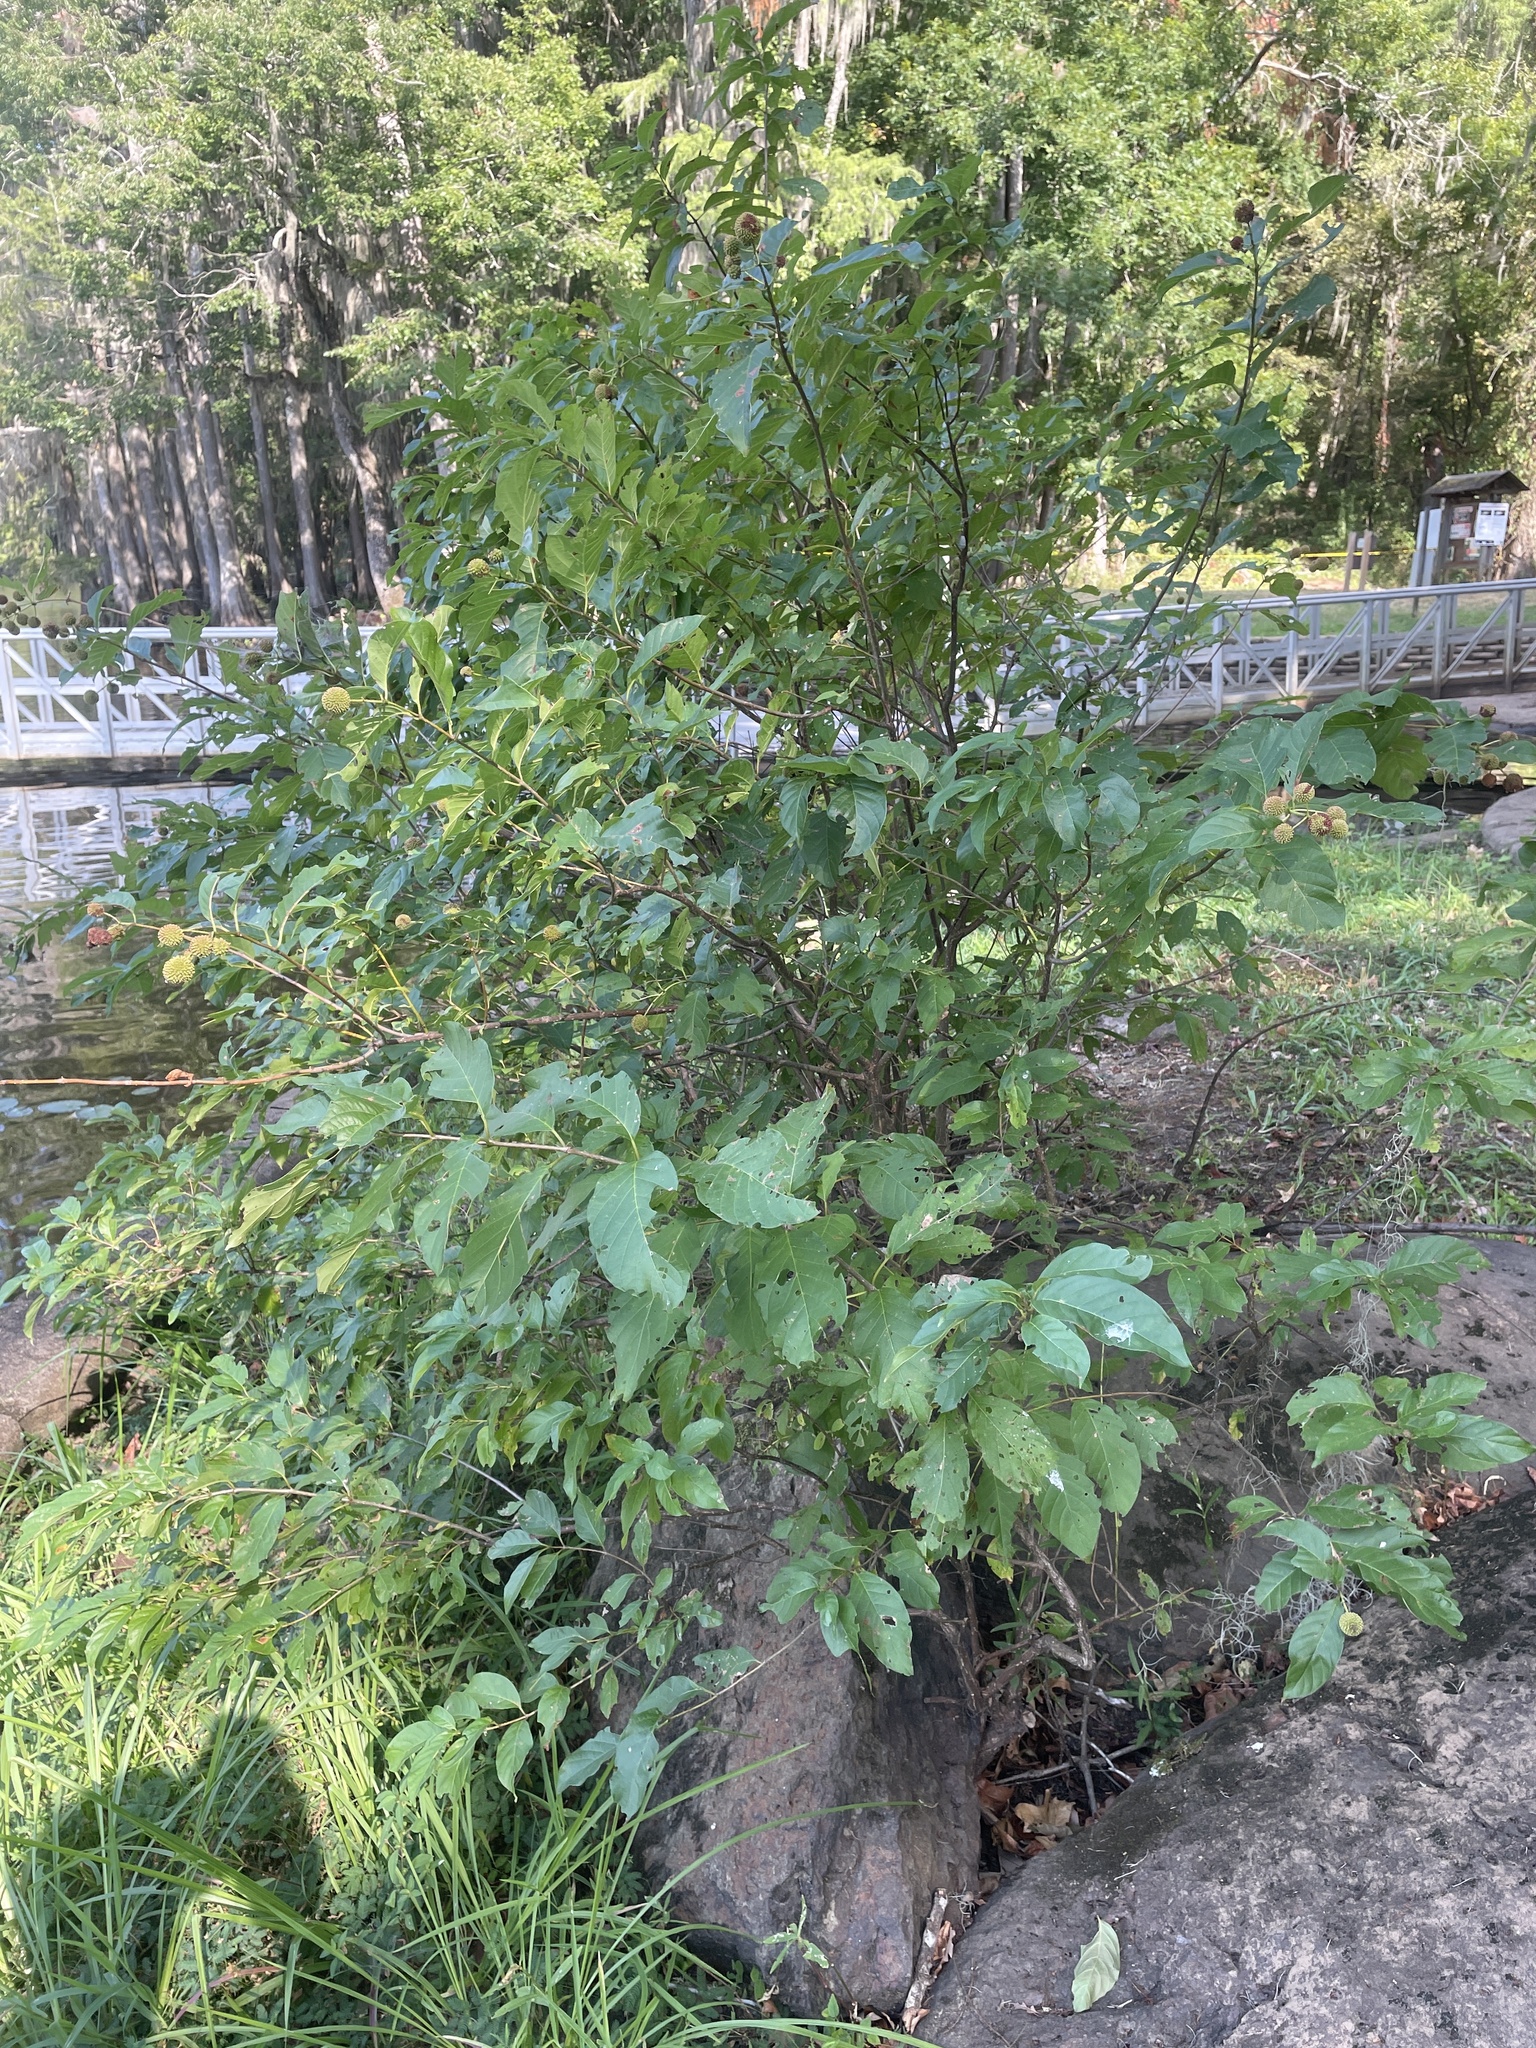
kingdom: Plantae
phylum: Tracheophyta
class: Magnoliopsida
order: Gentianales
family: Rubiaceae
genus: Cephalanthus
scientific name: Cephalanthus occidentalis
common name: Button-willow
